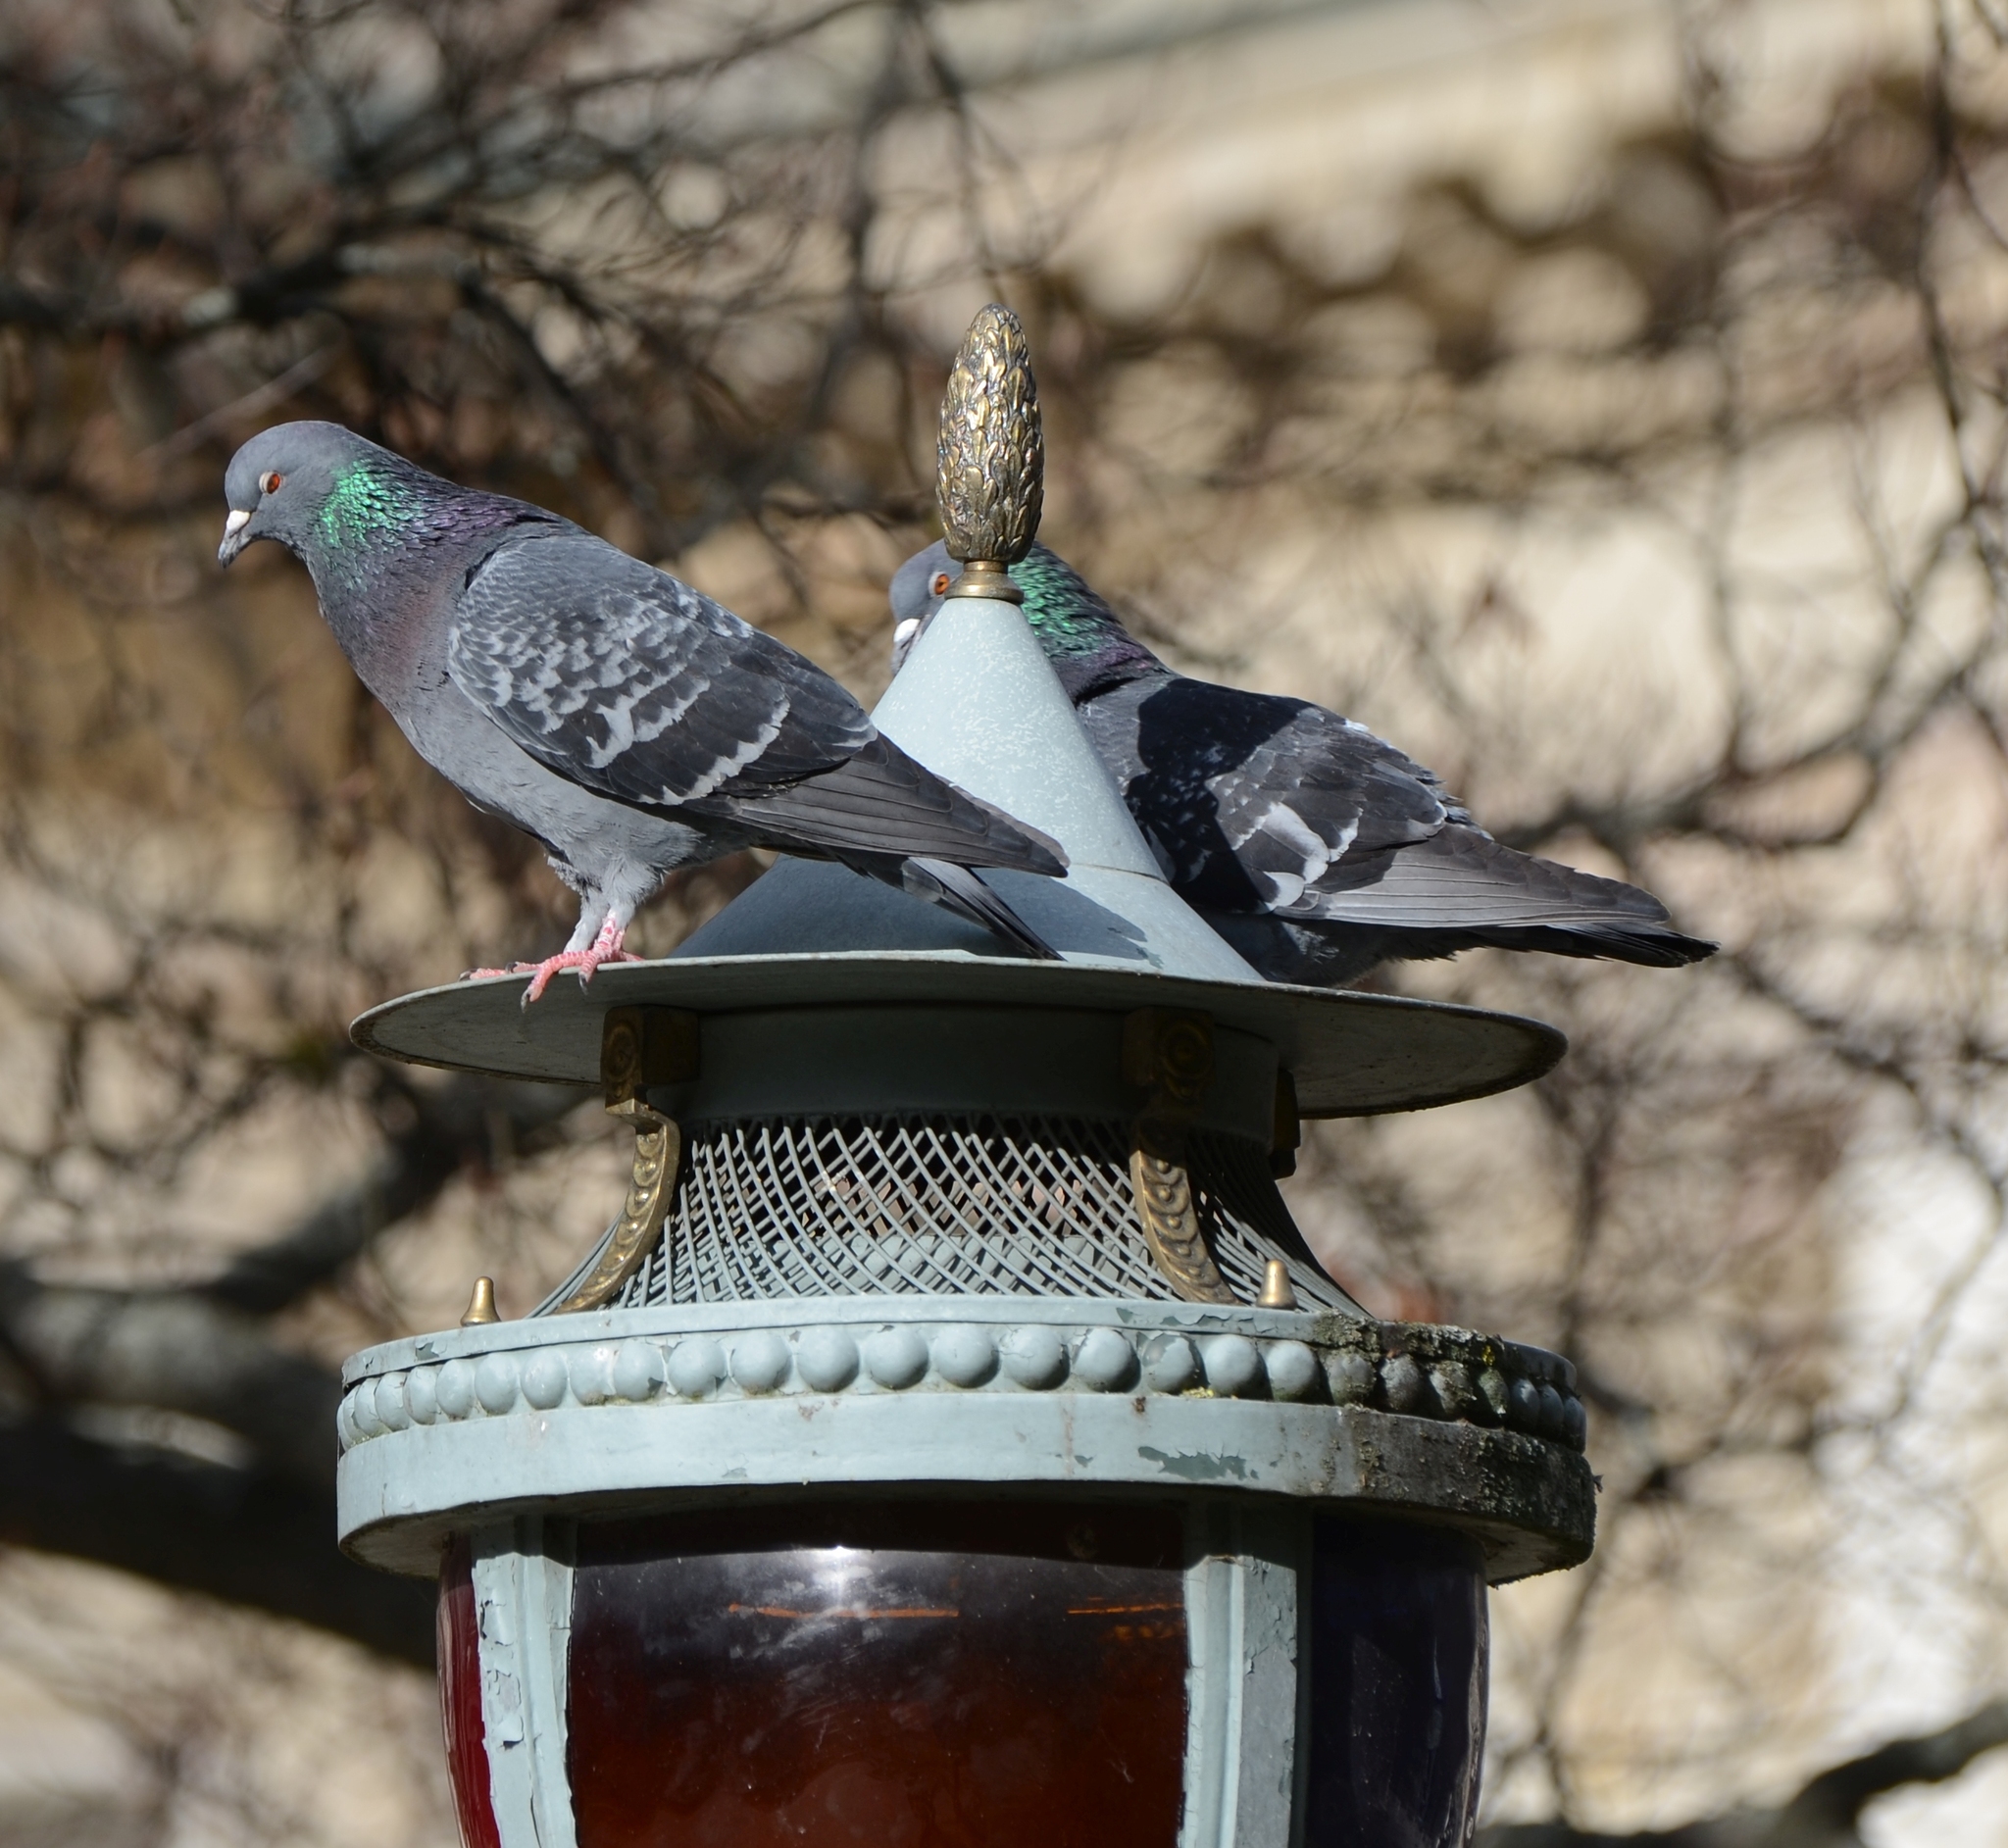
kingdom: Animalia
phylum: Chordata
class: Aves
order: Columbiformes
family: Columbidae
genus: Columba
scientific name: Columba livia
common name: Rock pigeon
